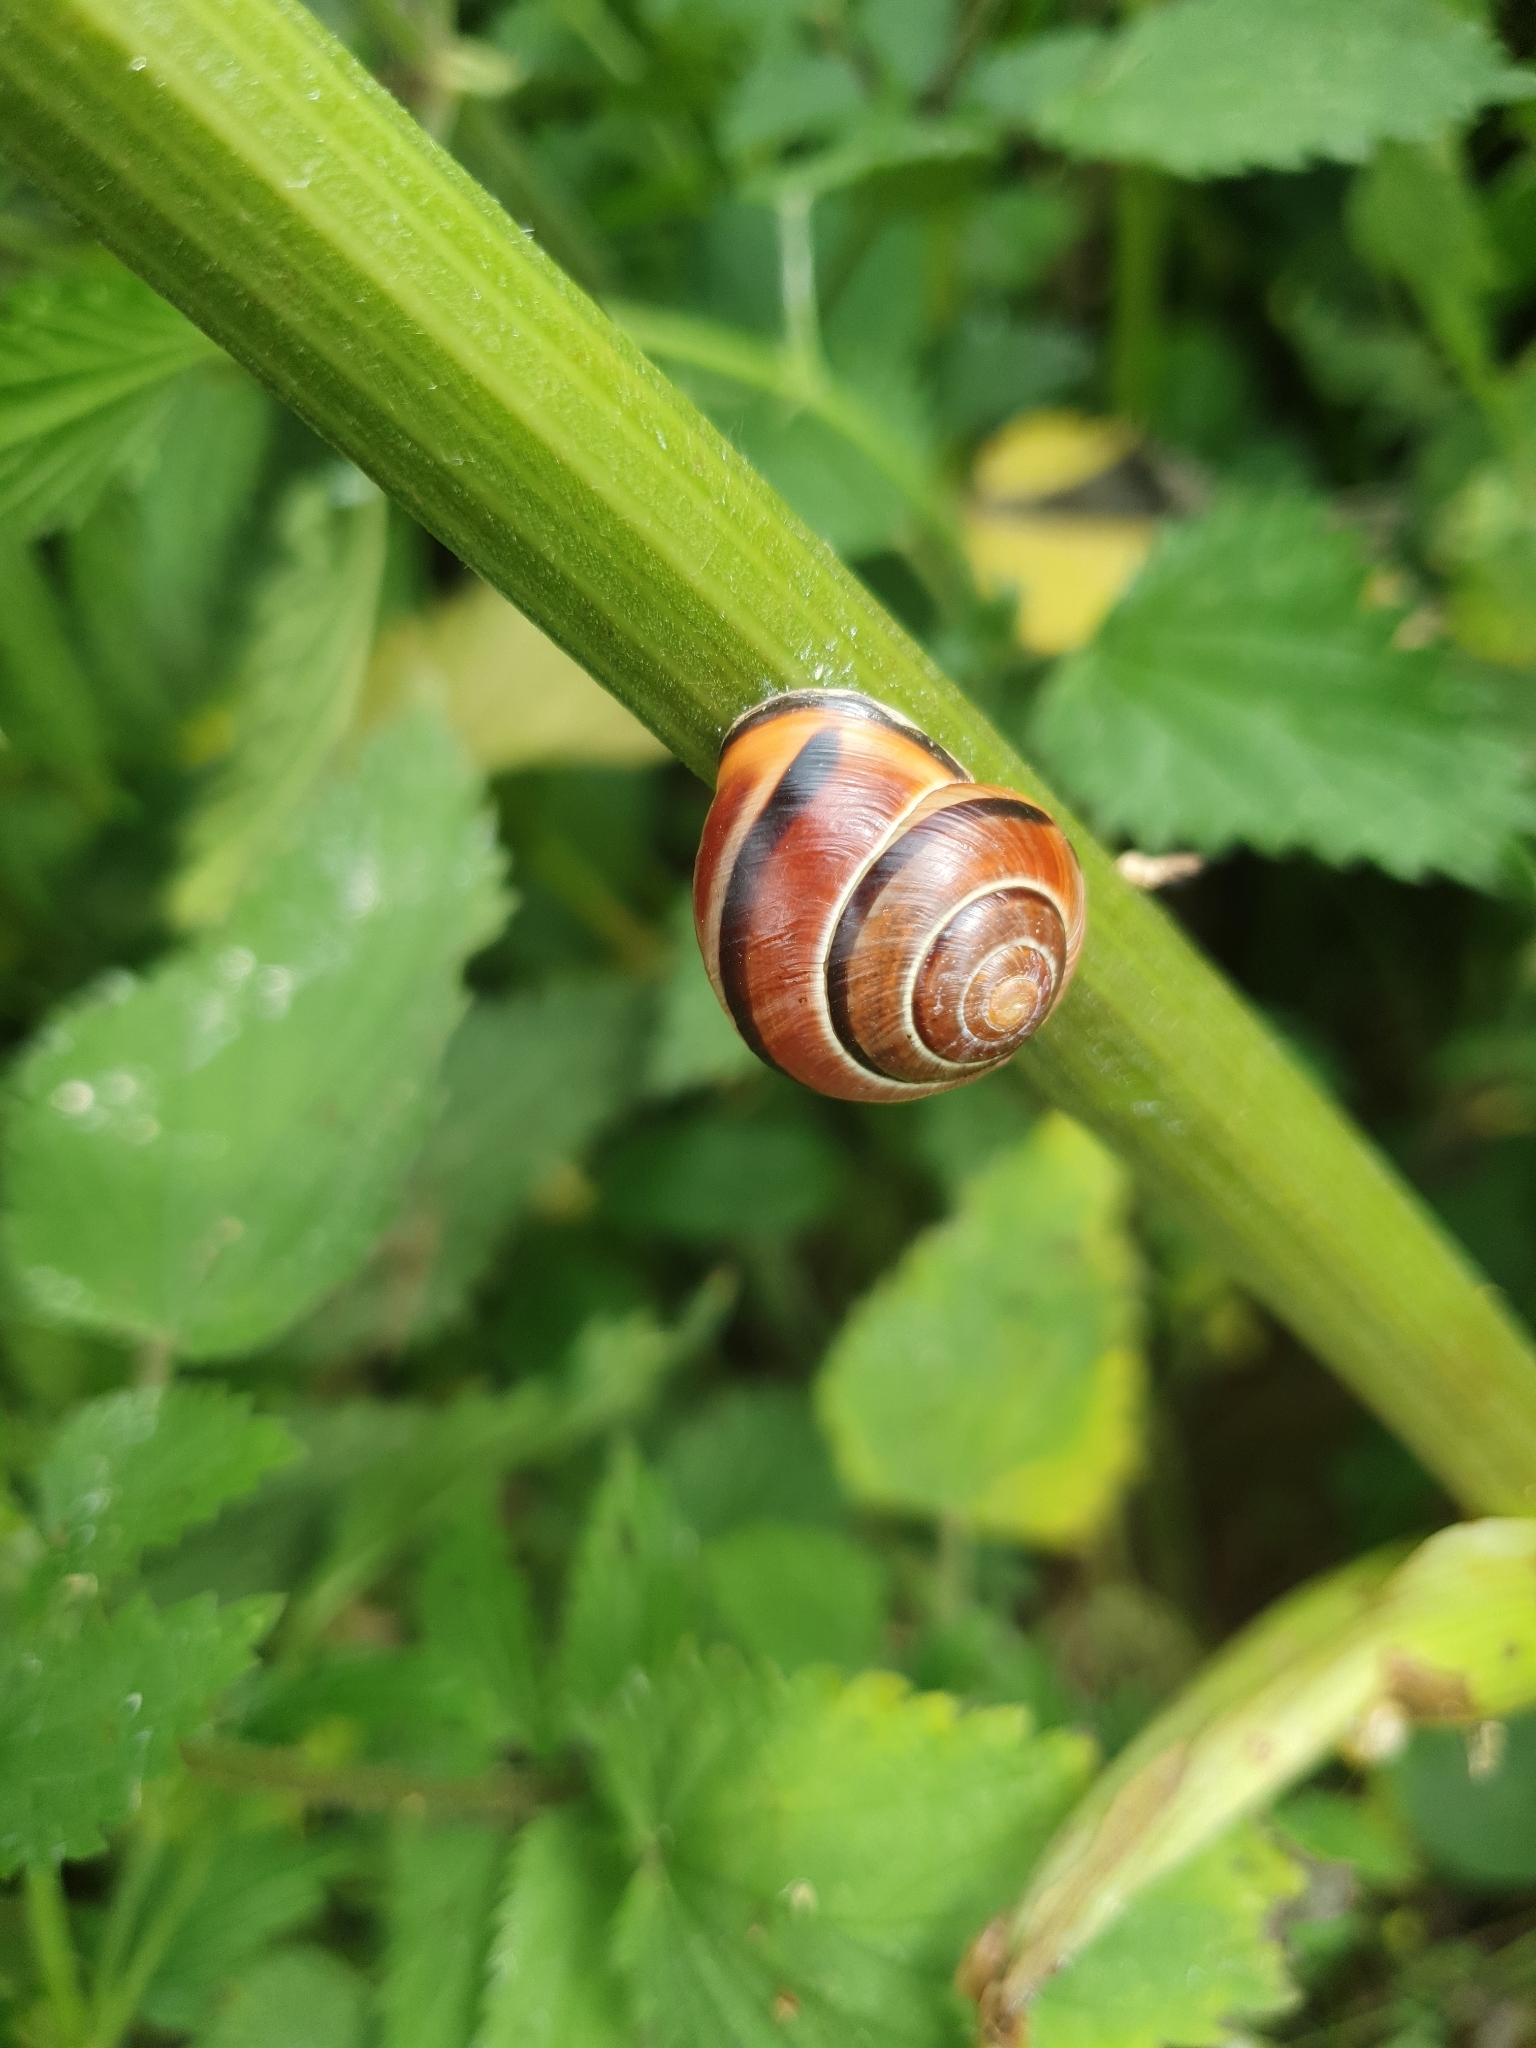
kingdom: Animalia
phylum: Mollusca
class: Gastropoda
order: Stylommatophora
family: Helicidae
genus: Cepaea
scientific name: Cepaea nemoralis
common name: Grovesnail
